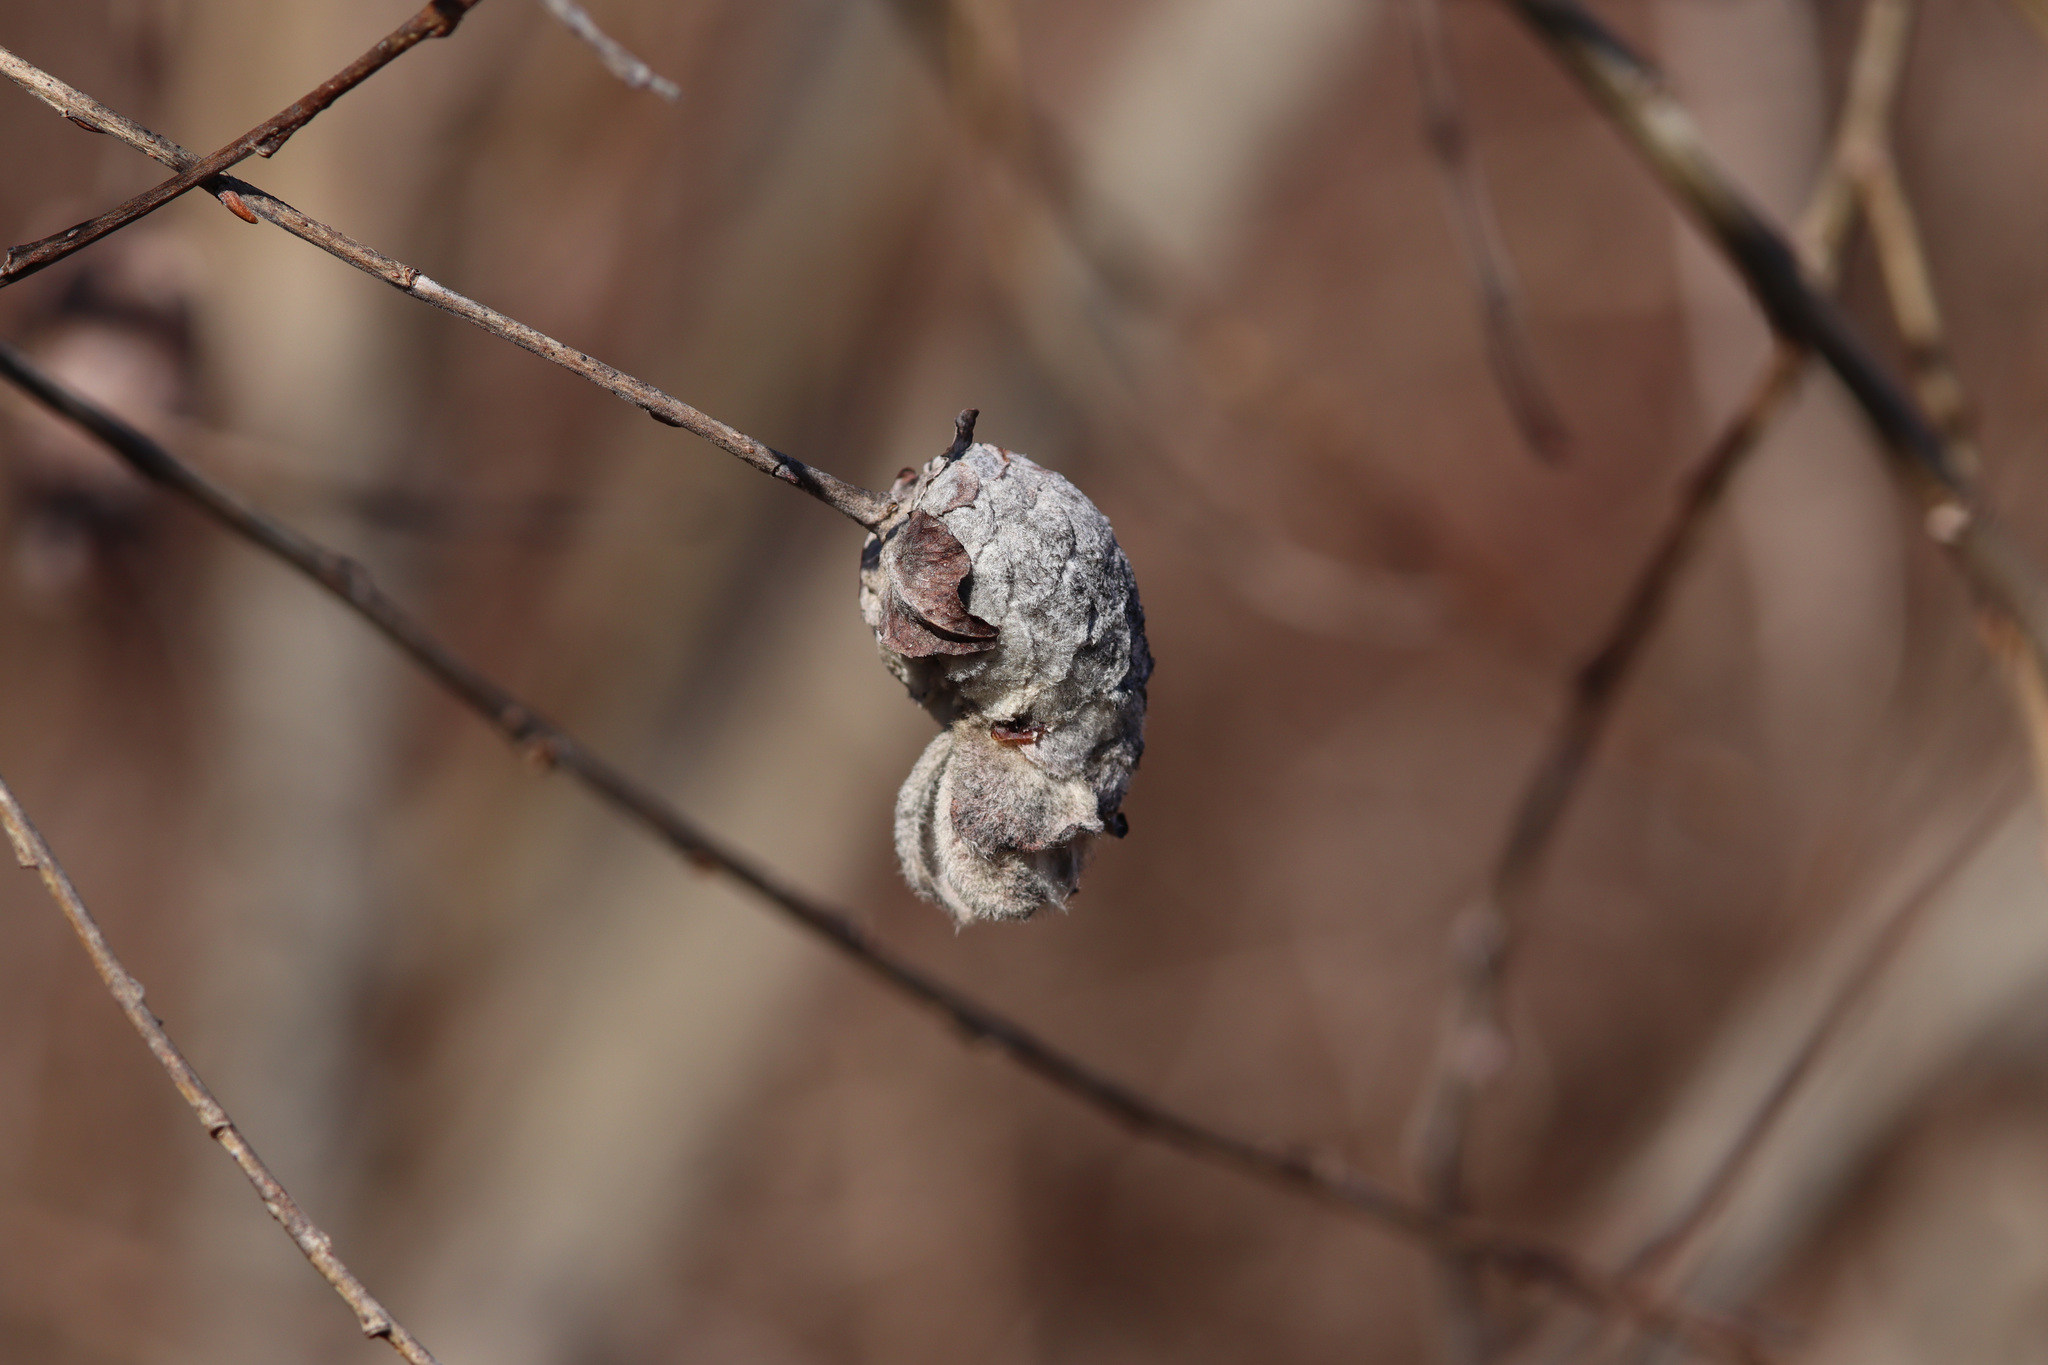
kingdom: Animalia
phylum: Arthropoda
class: Insecta
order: Diptera
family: Cecidomyiidae
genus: Rabdophaga
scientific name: Rabdophaga strobiloides
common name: Willow pinecone gall midge
